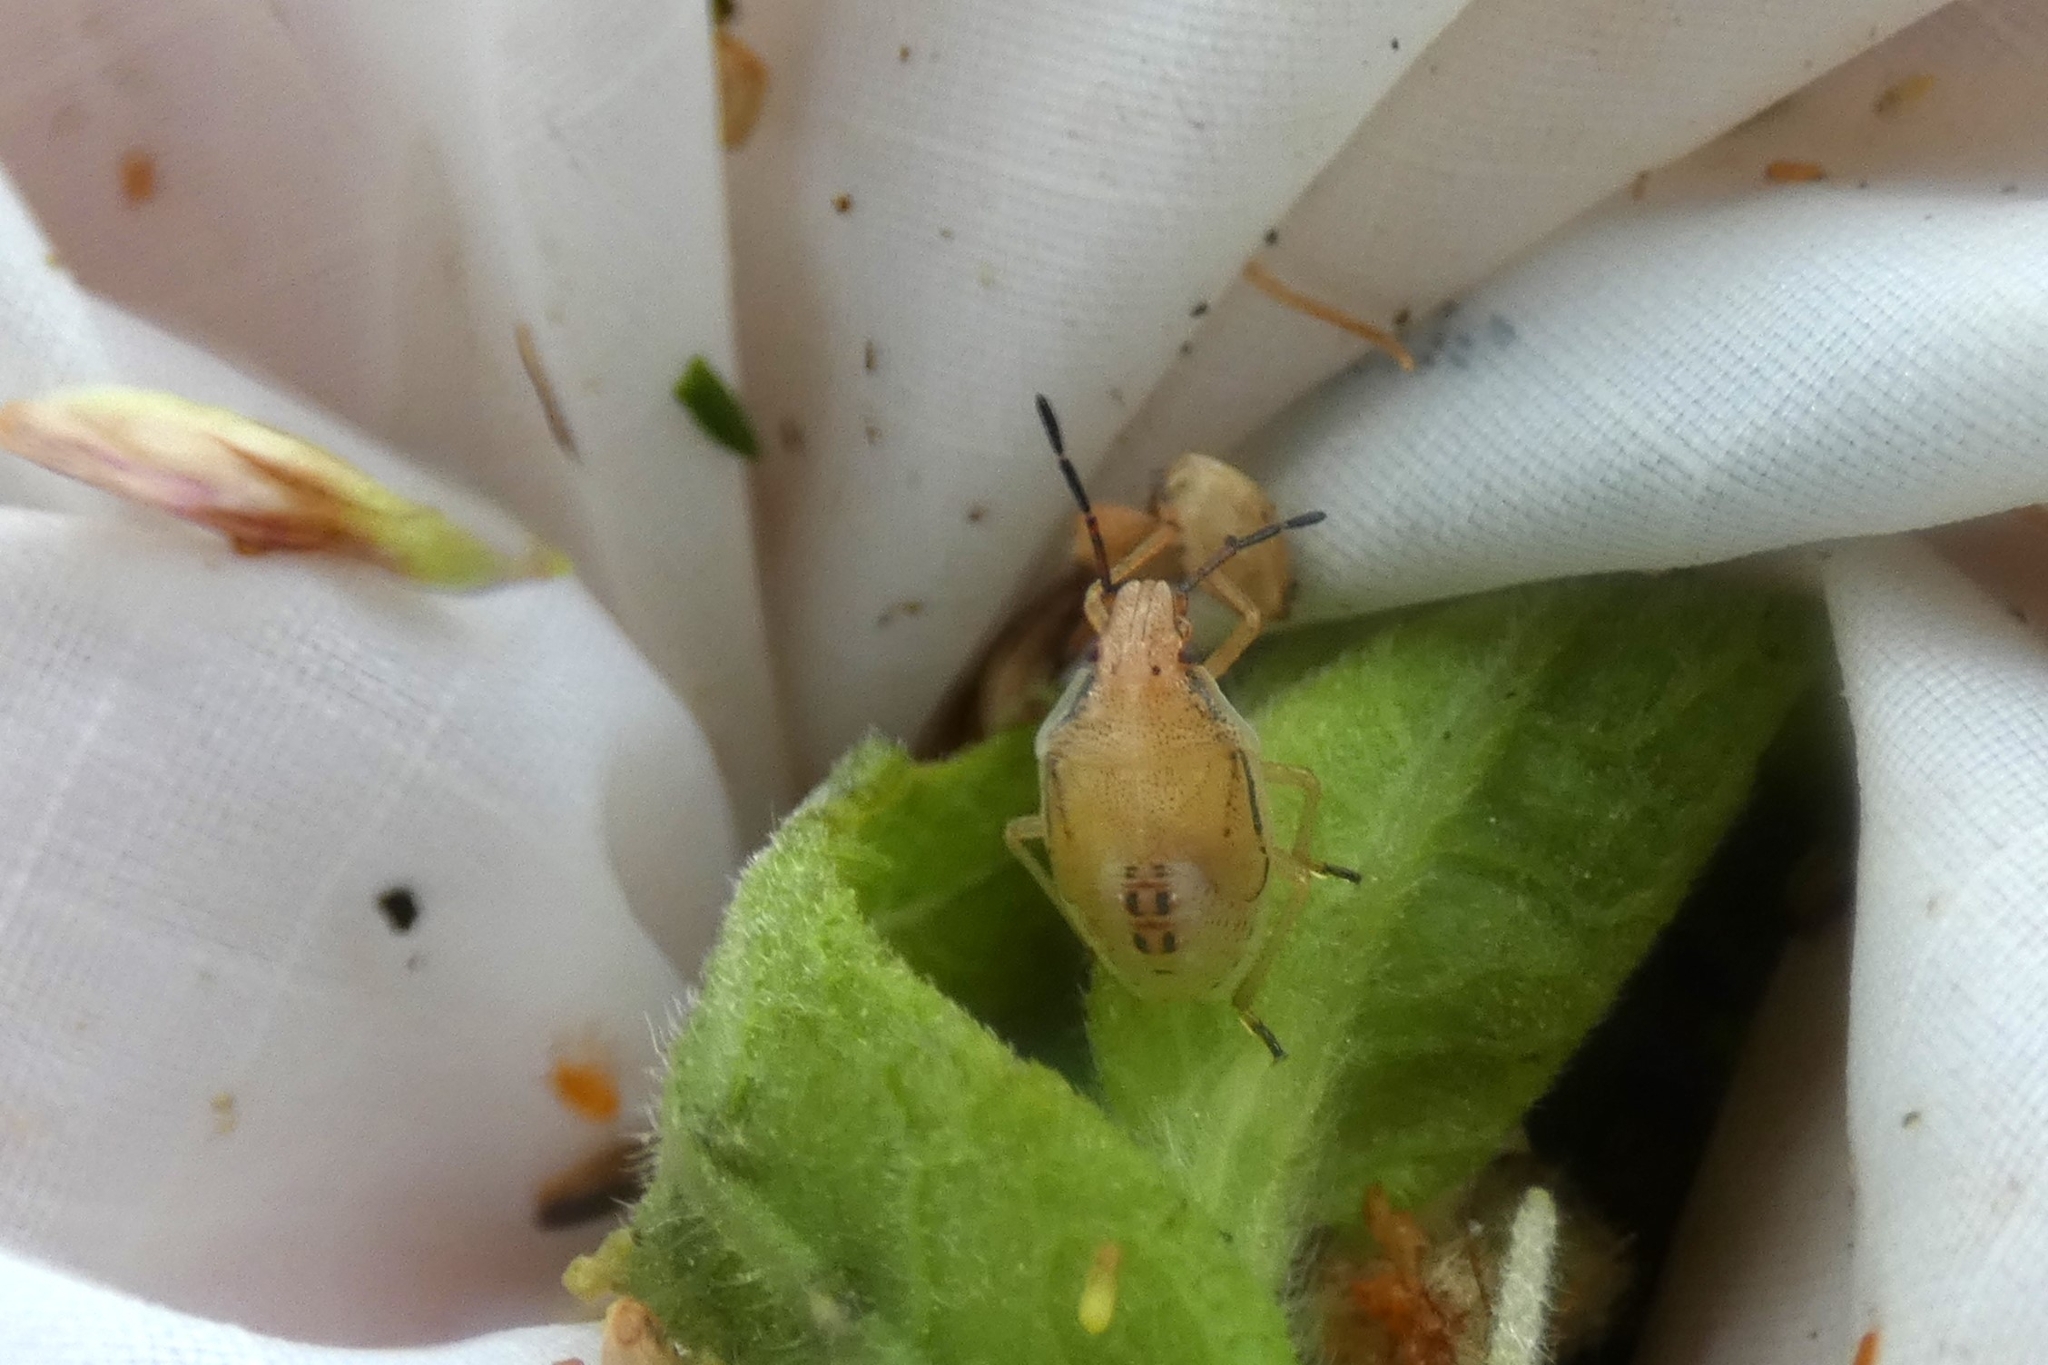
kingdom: Animalia
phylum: Arthropoda
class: Insecta
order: Hemiptera
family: Pentatomidae
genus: Oebalus
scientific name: Oebalus pugnax
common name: Rice stink bug
